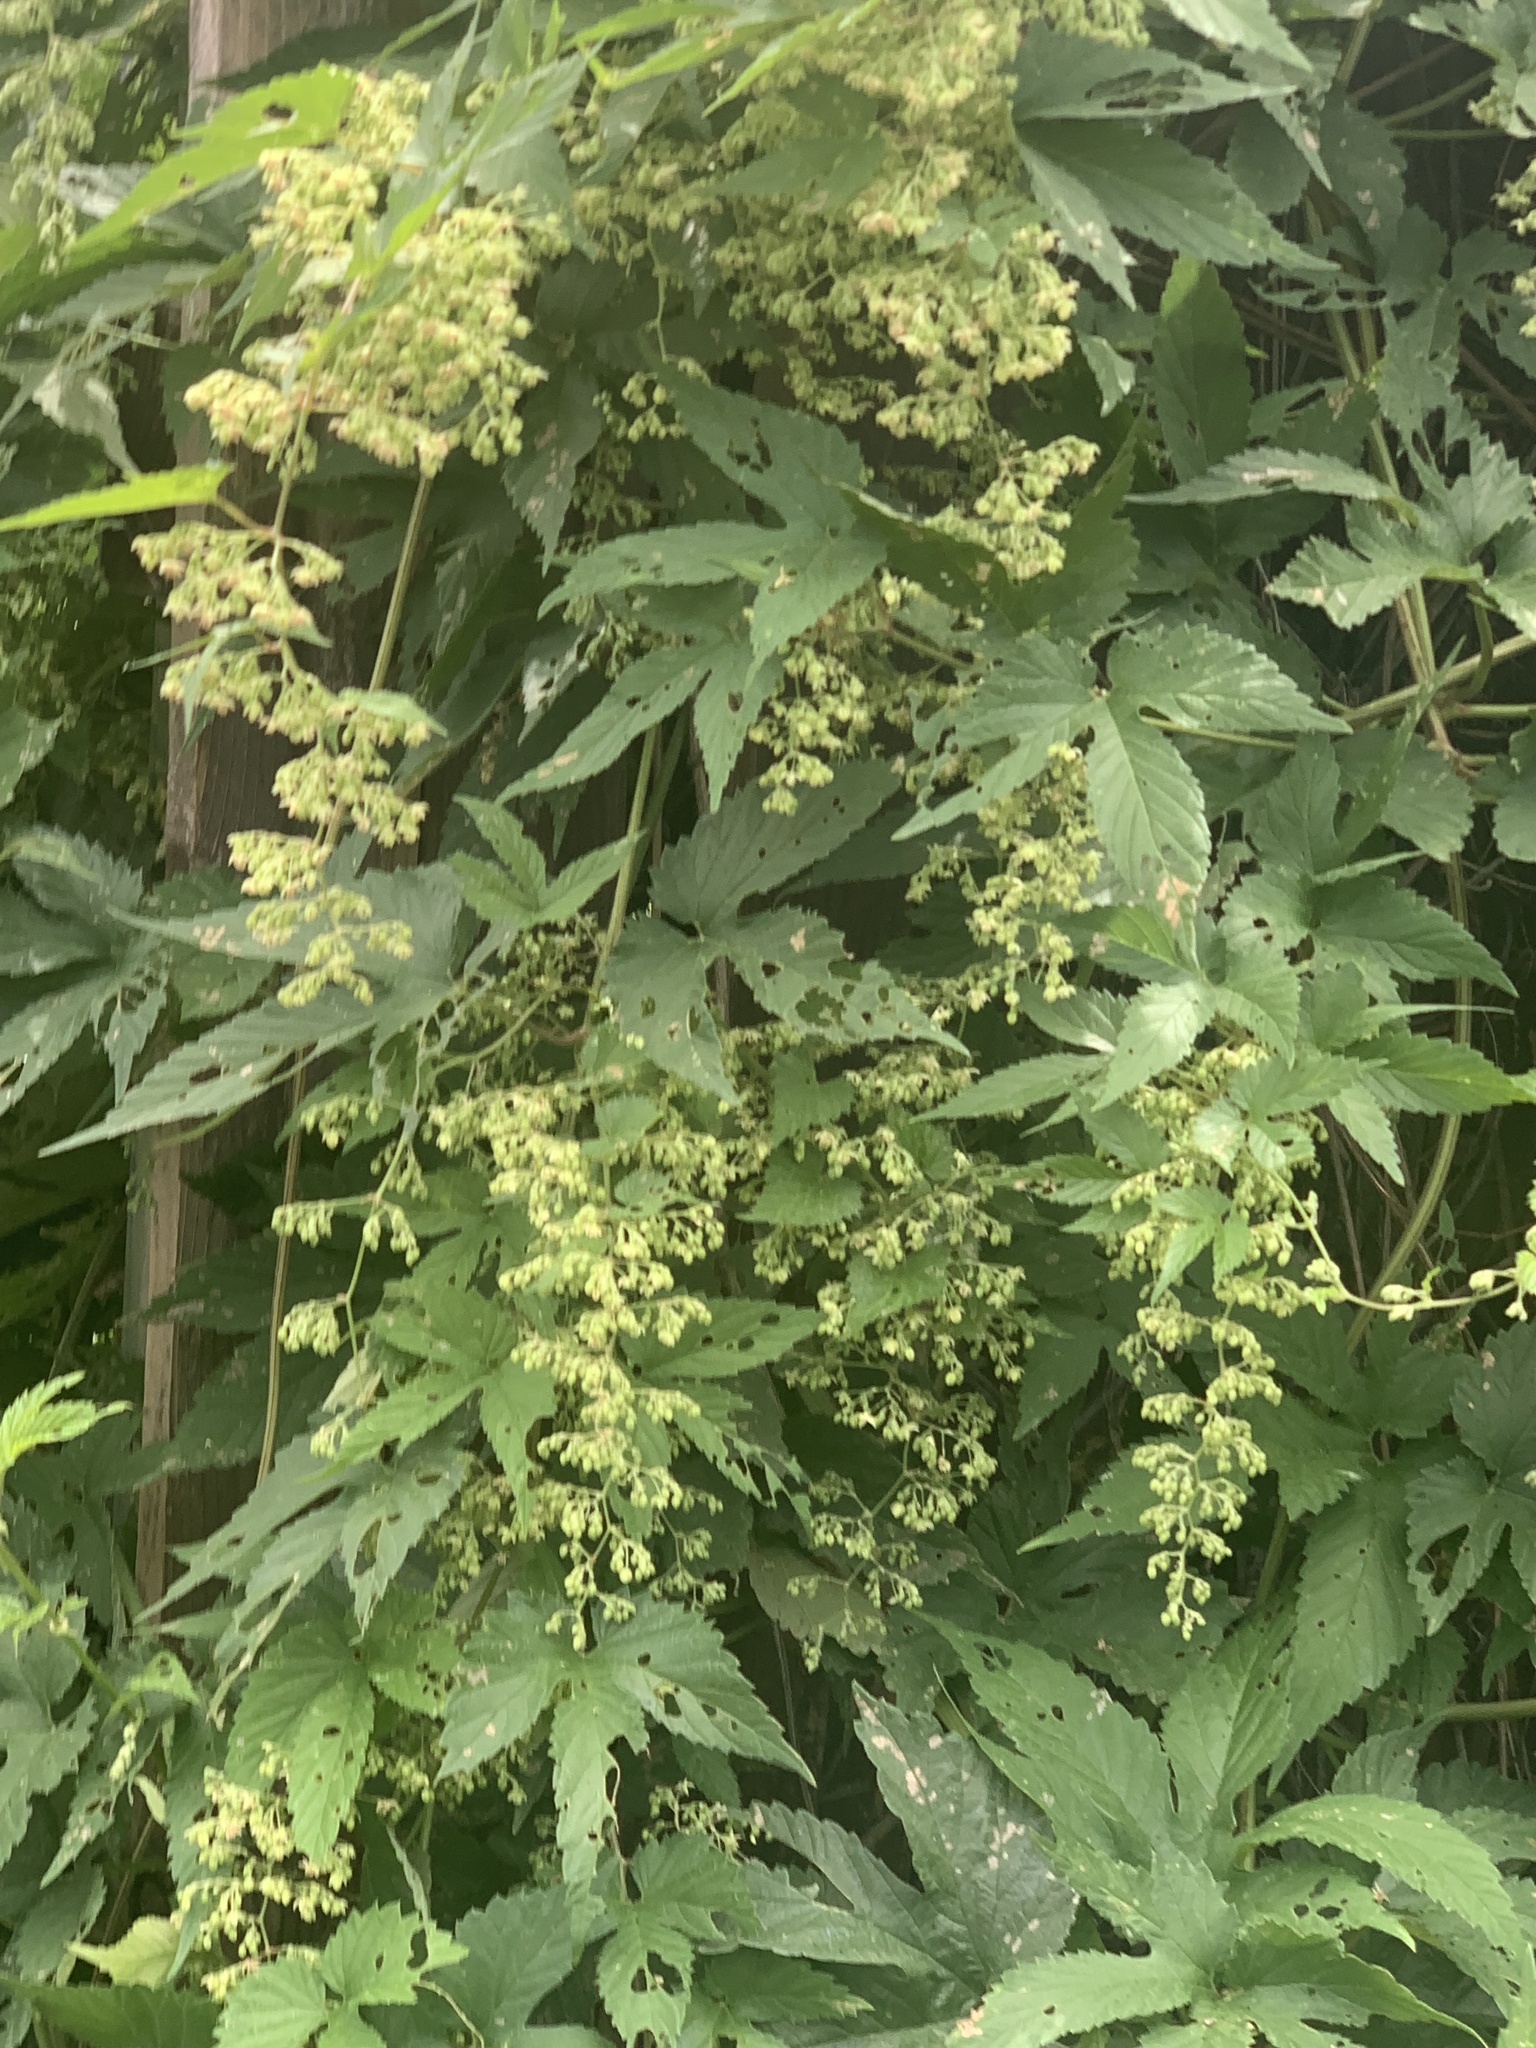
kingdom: Plantae
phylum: Tracheophyta
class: Magnoliopsida
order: Rosales
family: Cannabaceae
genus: Humulus
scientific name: Humulus lupulus
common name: Hop
